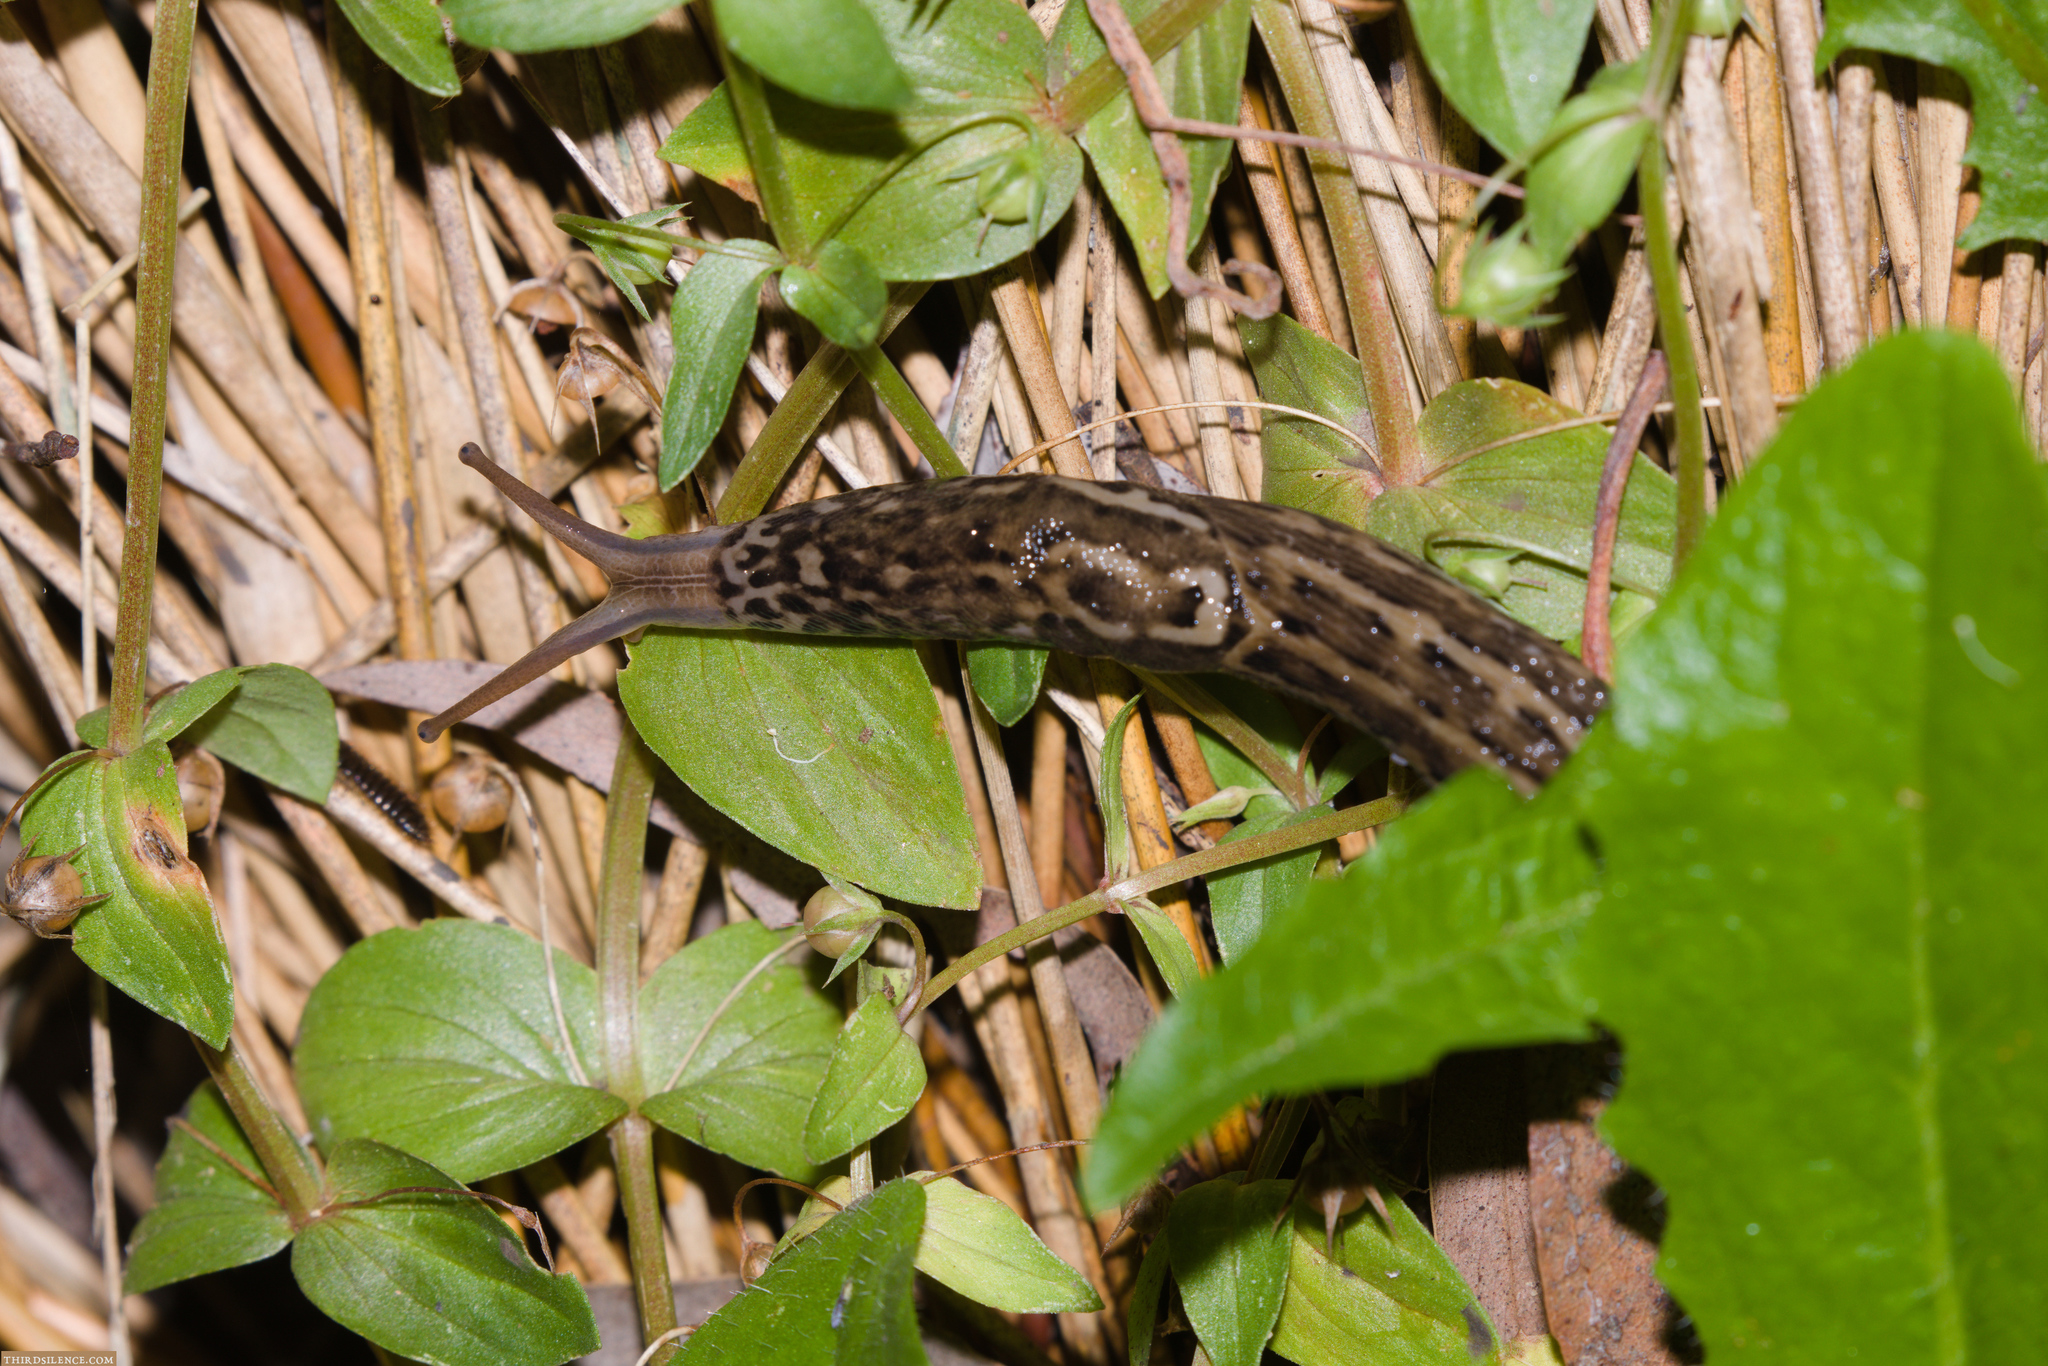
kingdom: Animalia
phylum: Mollusca
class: Gastropoda
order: Stylommatophora
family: Limacidae
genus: Limax
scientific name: Limax maximus
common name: Great grey slug
